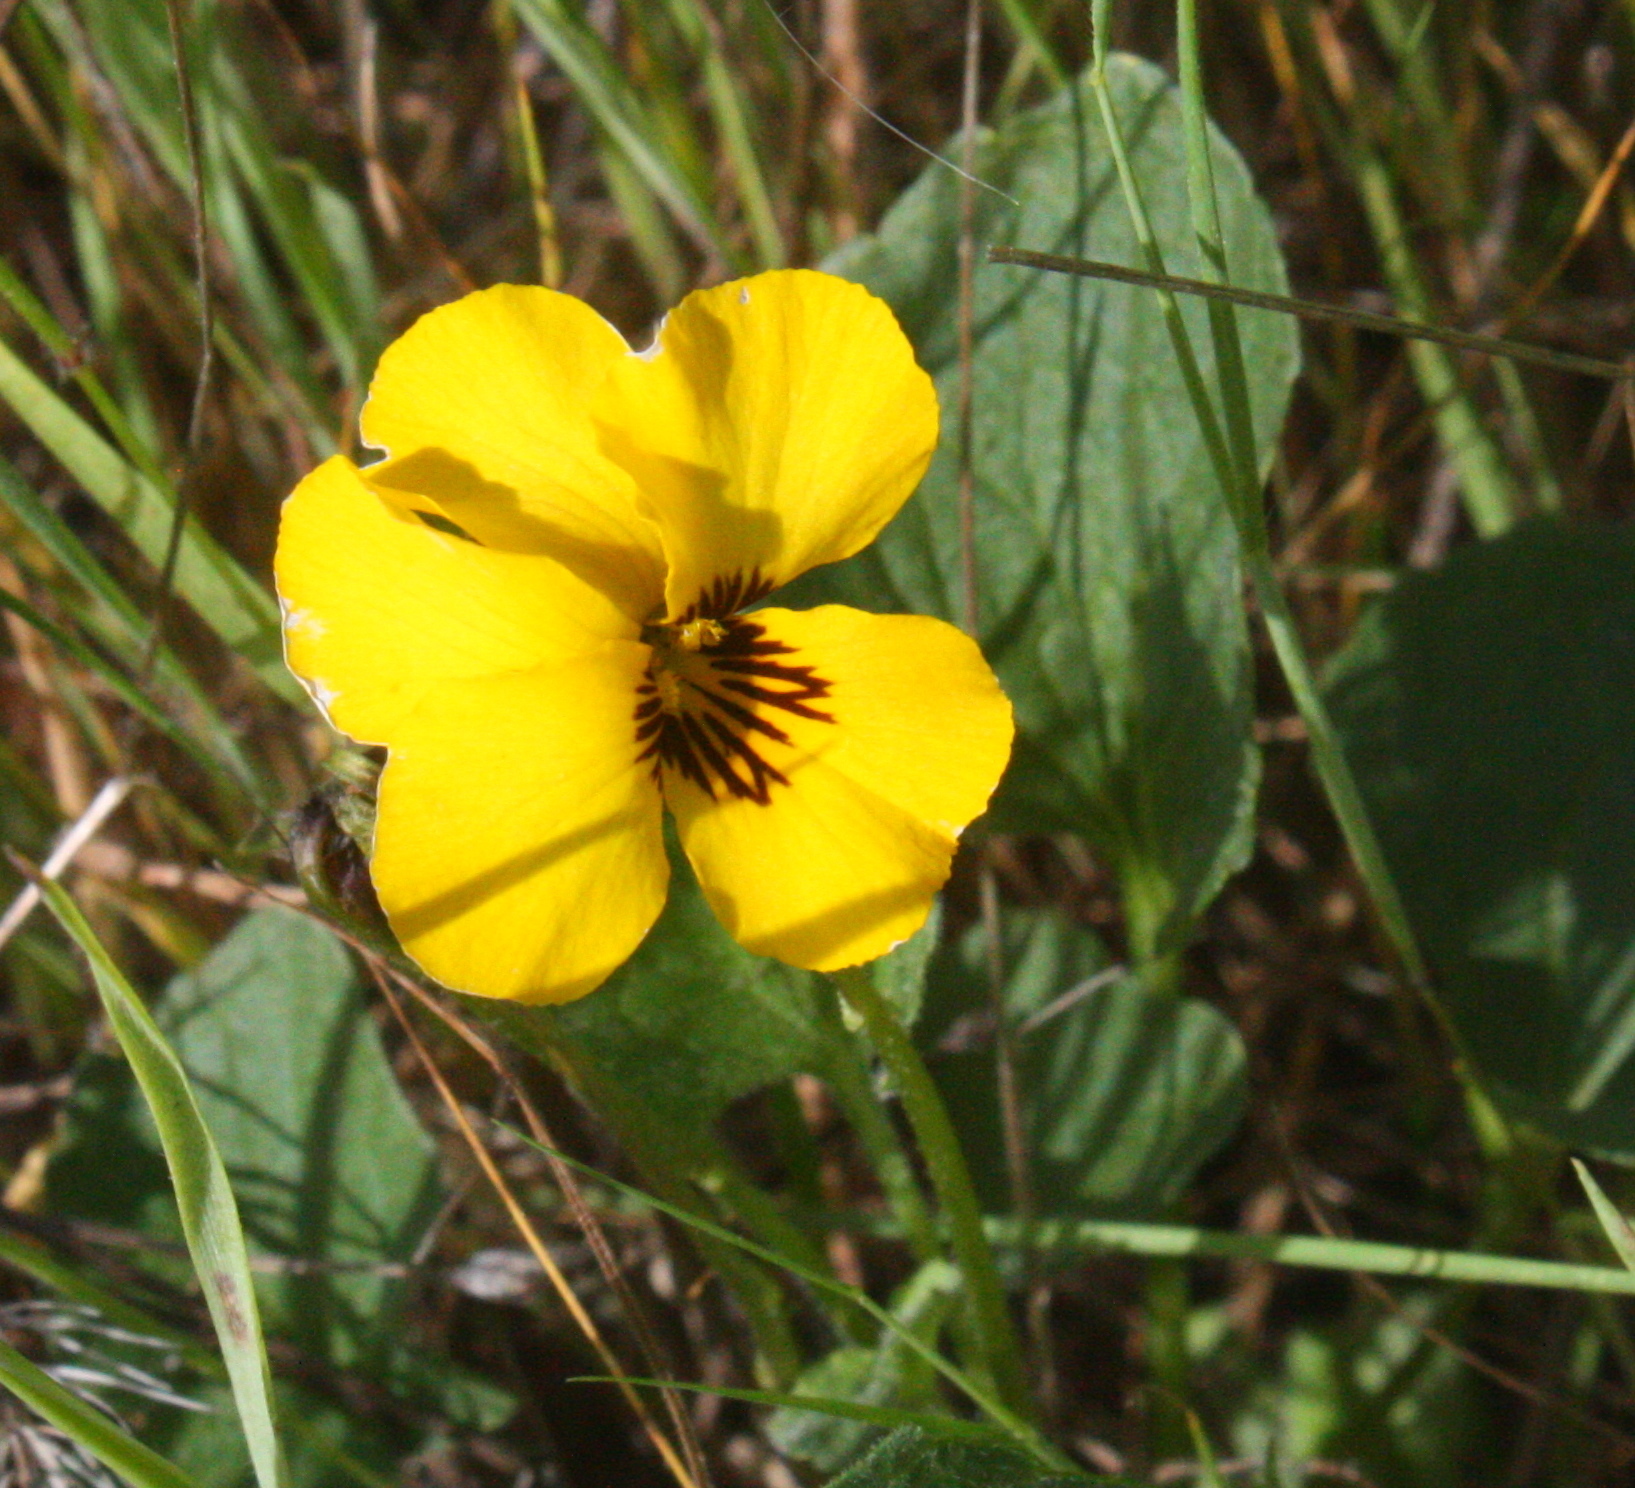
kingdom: Plantae
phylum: Tracheophyta
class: Magnoliopsida
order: Malpighiales
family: Violaceae
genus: Viola
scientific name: Viola pedunculata
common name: California golden violet
